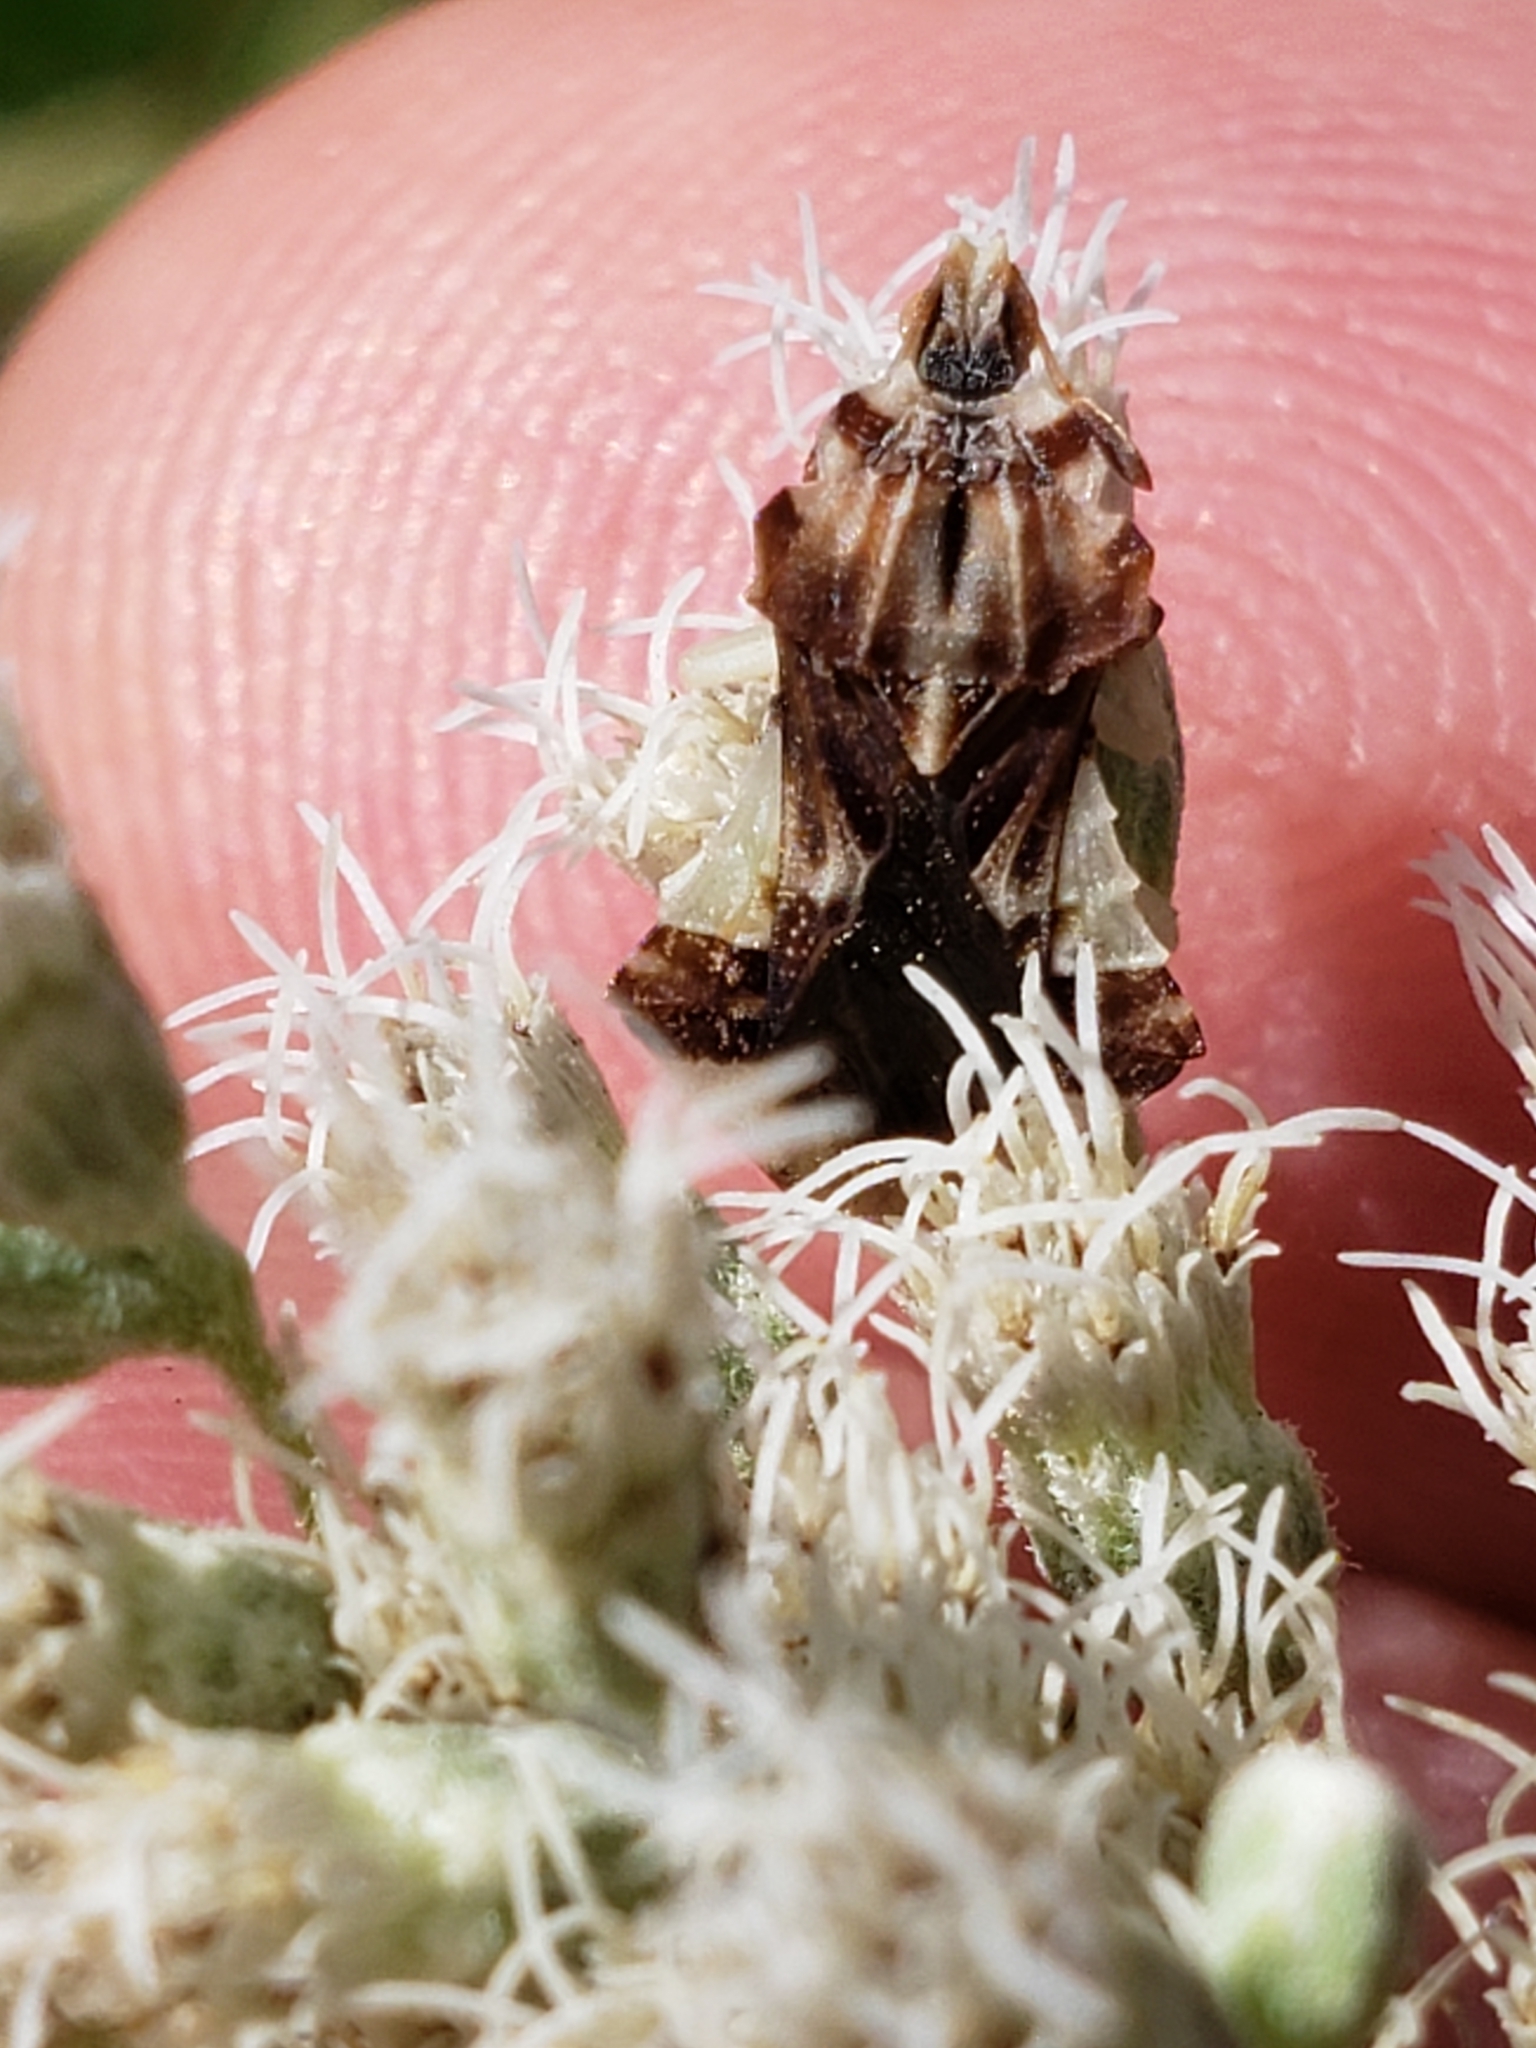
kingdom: Animalia
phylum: Arthropoda
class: Insecta
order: Hemiptera
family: Reduviidae
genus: Phymata
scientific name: Phymata fasciata
